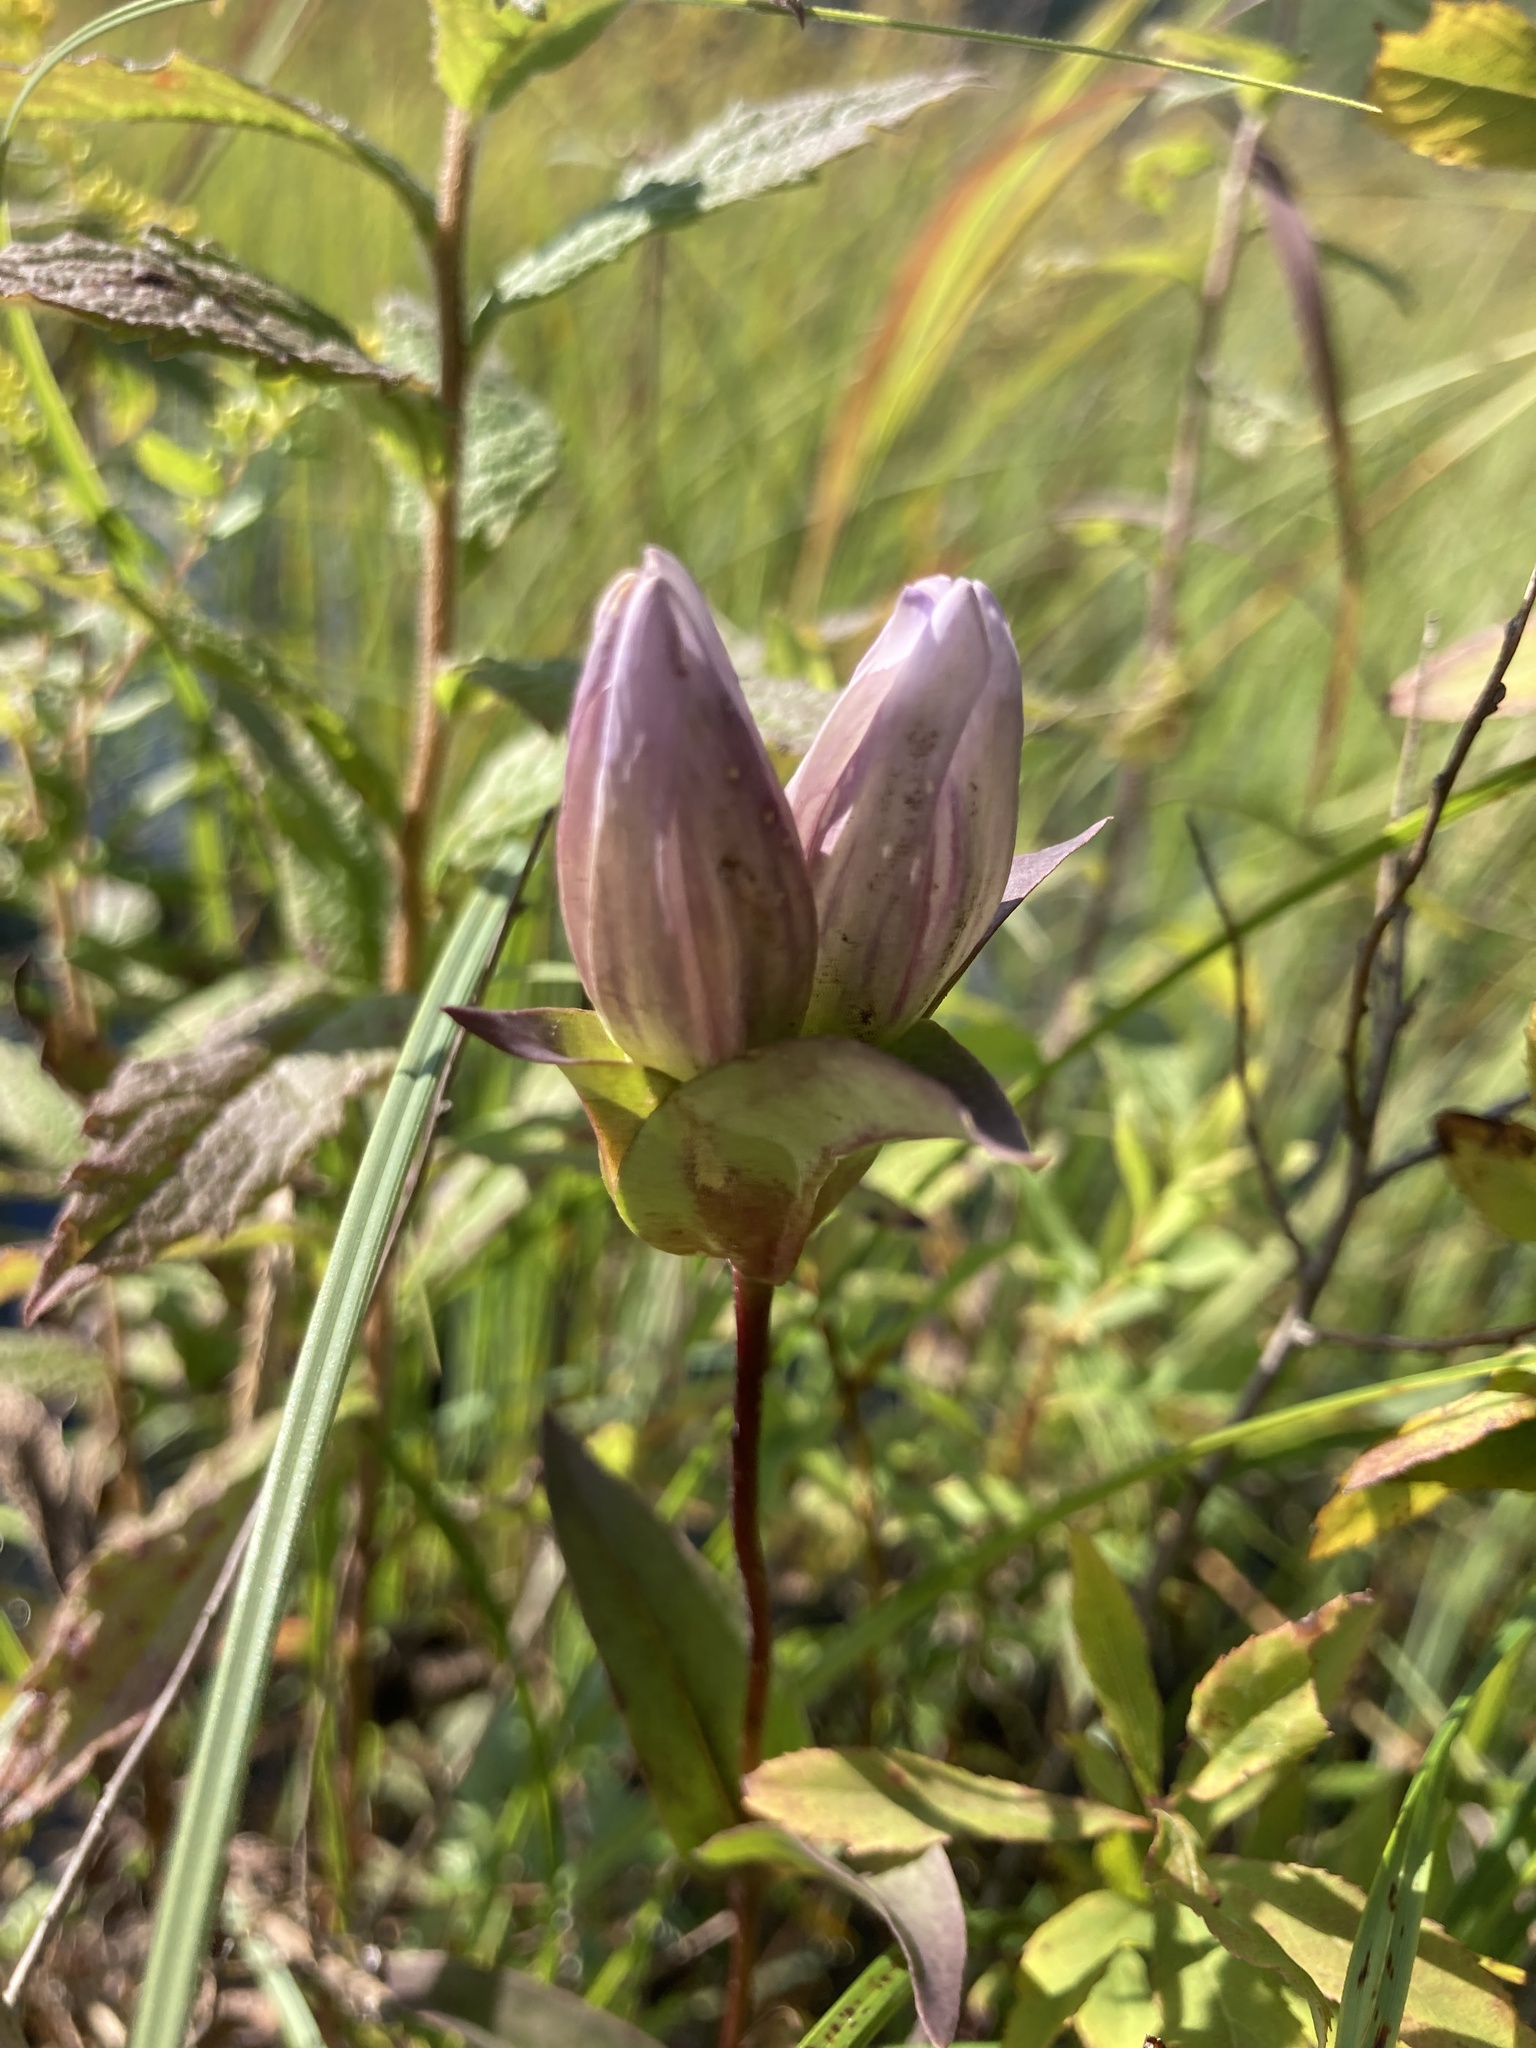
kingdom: Plantae
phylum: Tracheophyta
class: Magnoliopsida
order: Gentianales
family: Gentianaceae
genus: Gentiana
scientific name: Gentiana rubricaulis
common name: Purple-stemmed gentian
